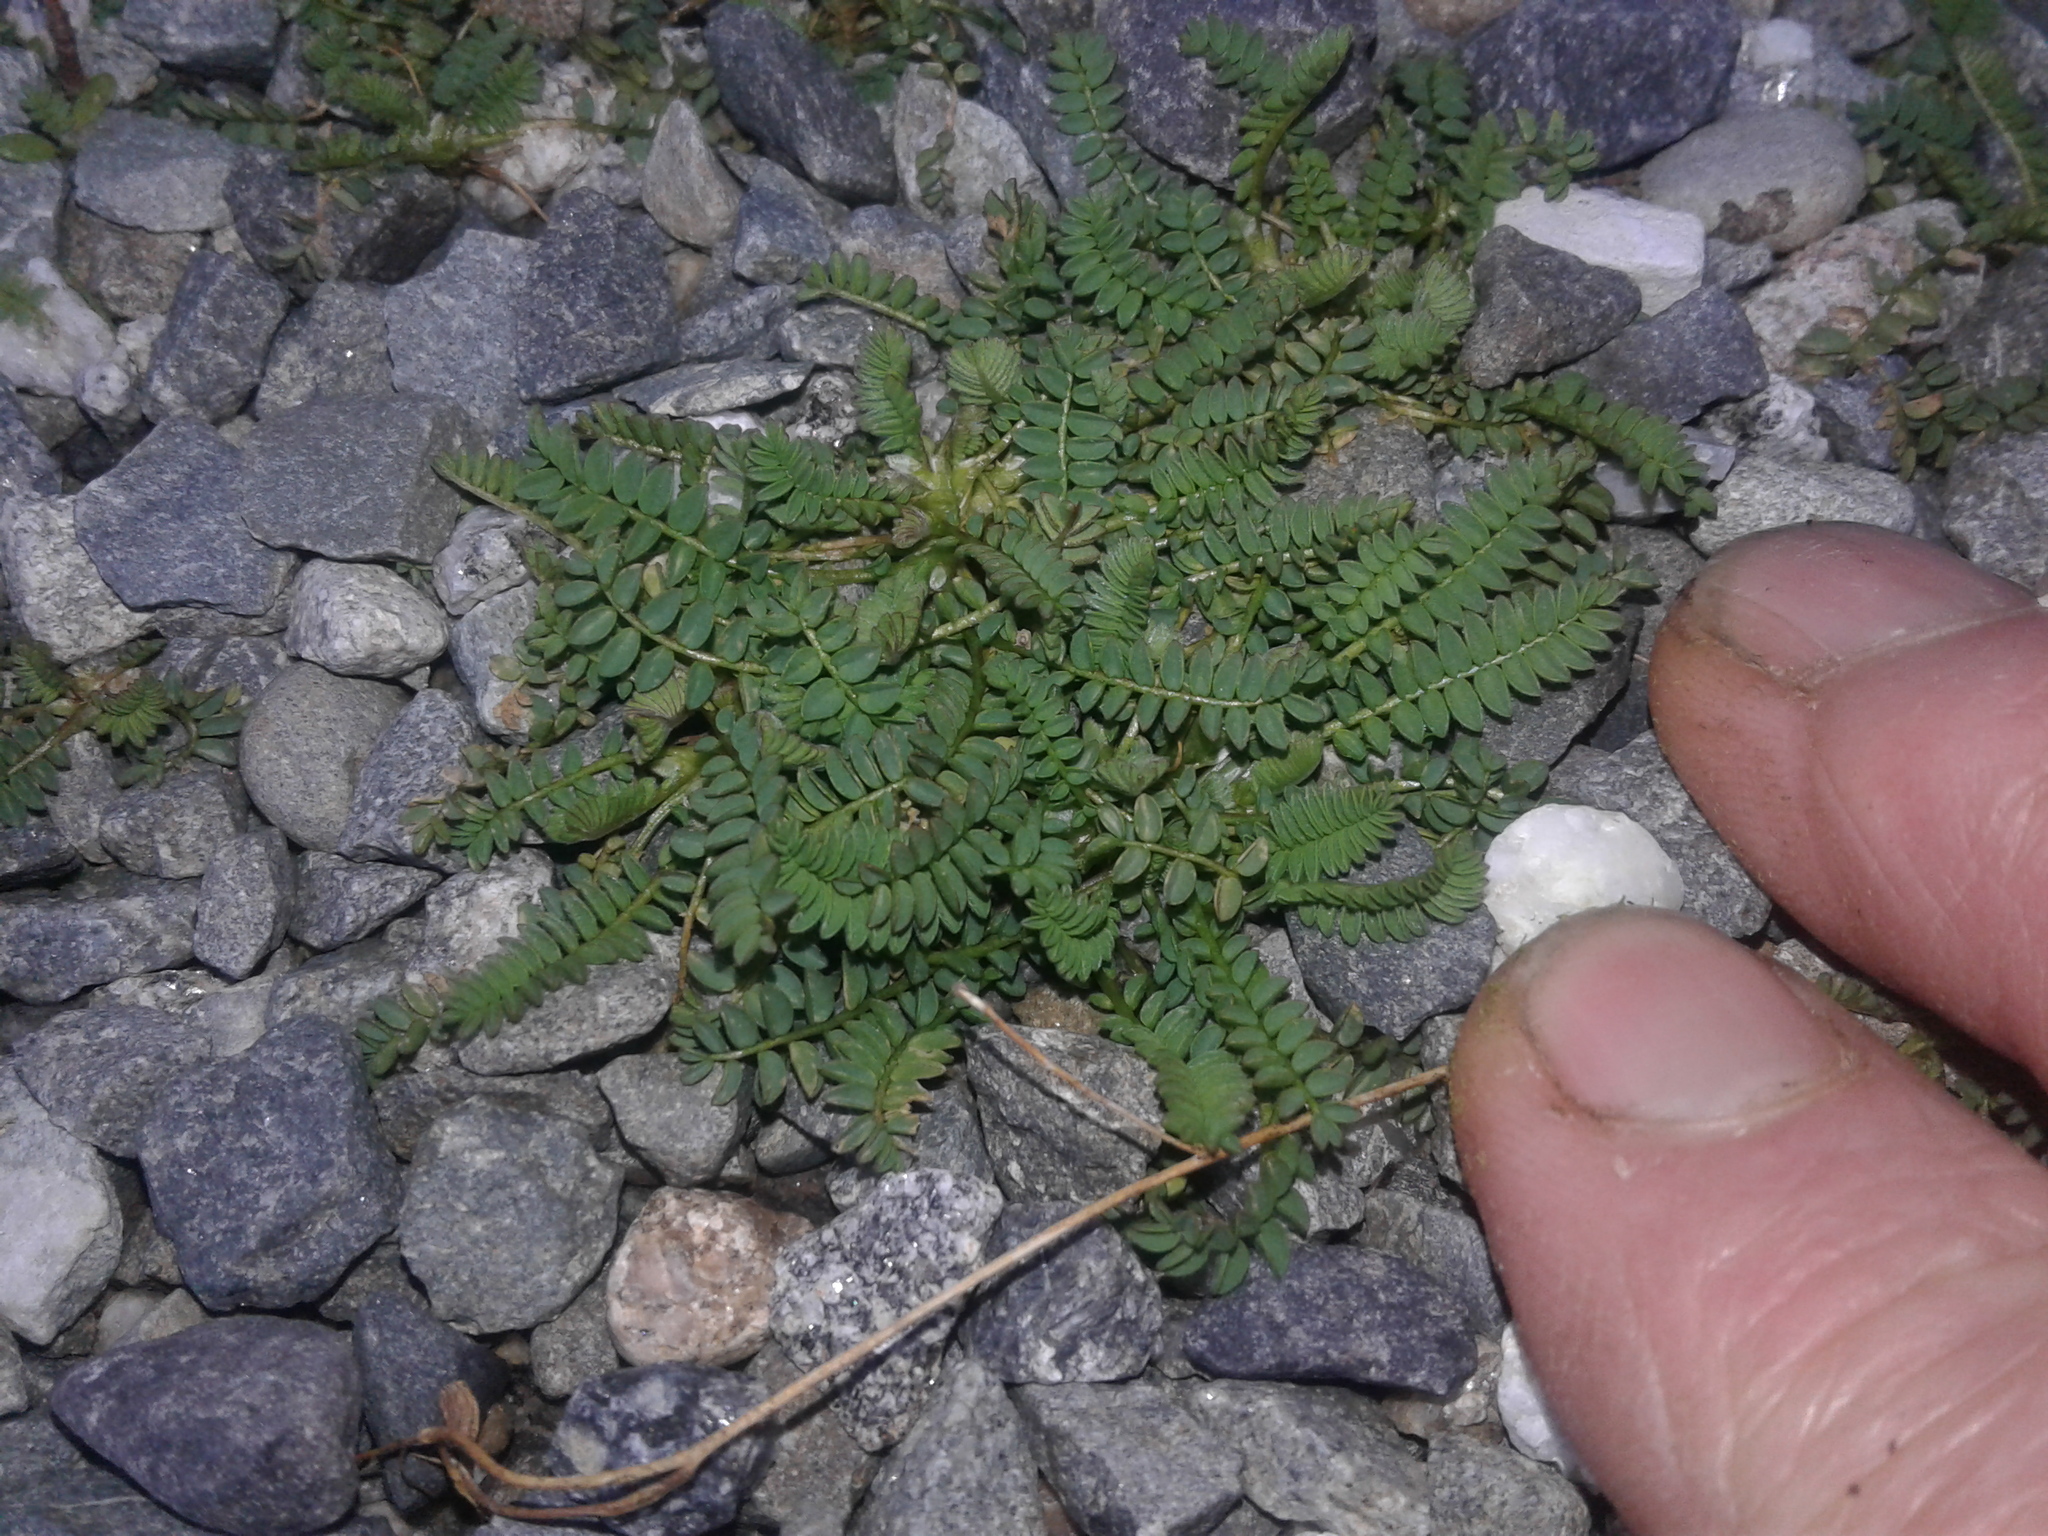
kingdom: Plantae
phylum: Tracheophyta
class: Magnoliopsida
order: Fabales
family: Fabaceae
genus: Ornithopus
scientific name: Ornithopus perpusillus
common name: Bird's-foot
